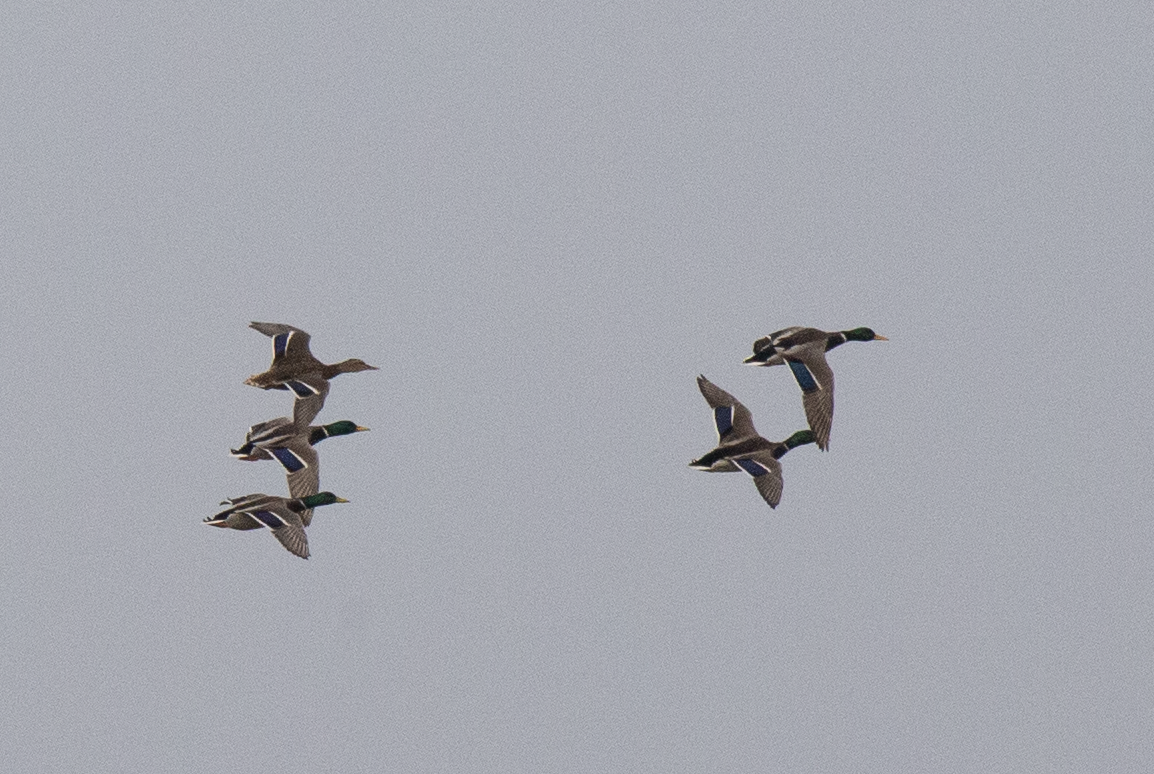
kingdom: Animalia
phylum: Chordata
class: Aves
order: Anseriformes
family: Anatidae
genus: Anas
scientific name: Anas platyrhynchos
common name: Mallard
